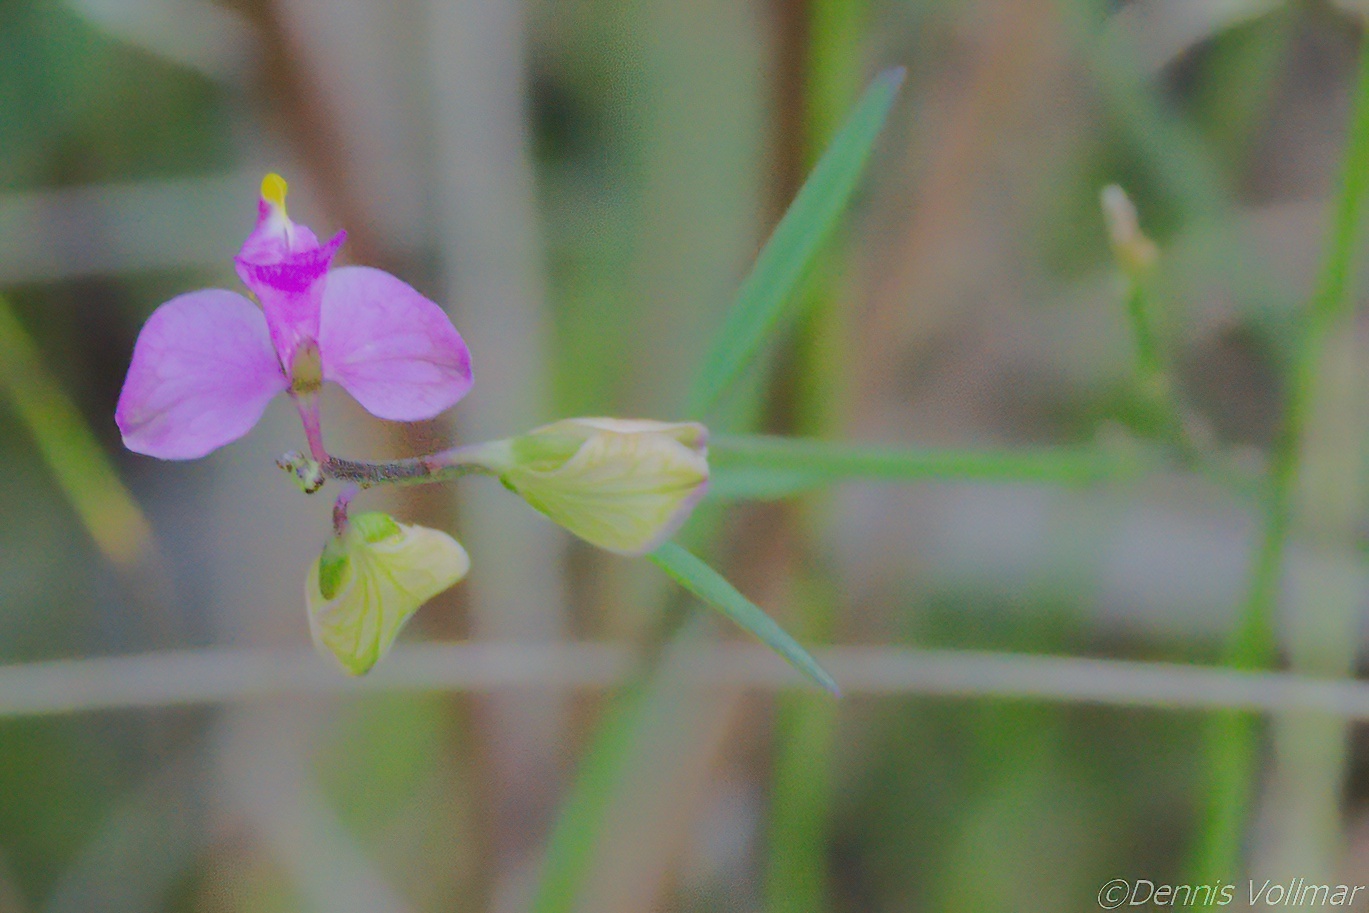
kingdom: Plantae
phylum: Tracheophyta
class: Magnoliopsida
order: Fabales
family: Polygalaceae
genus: Asemeia
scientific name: Asemeia grandiflora
